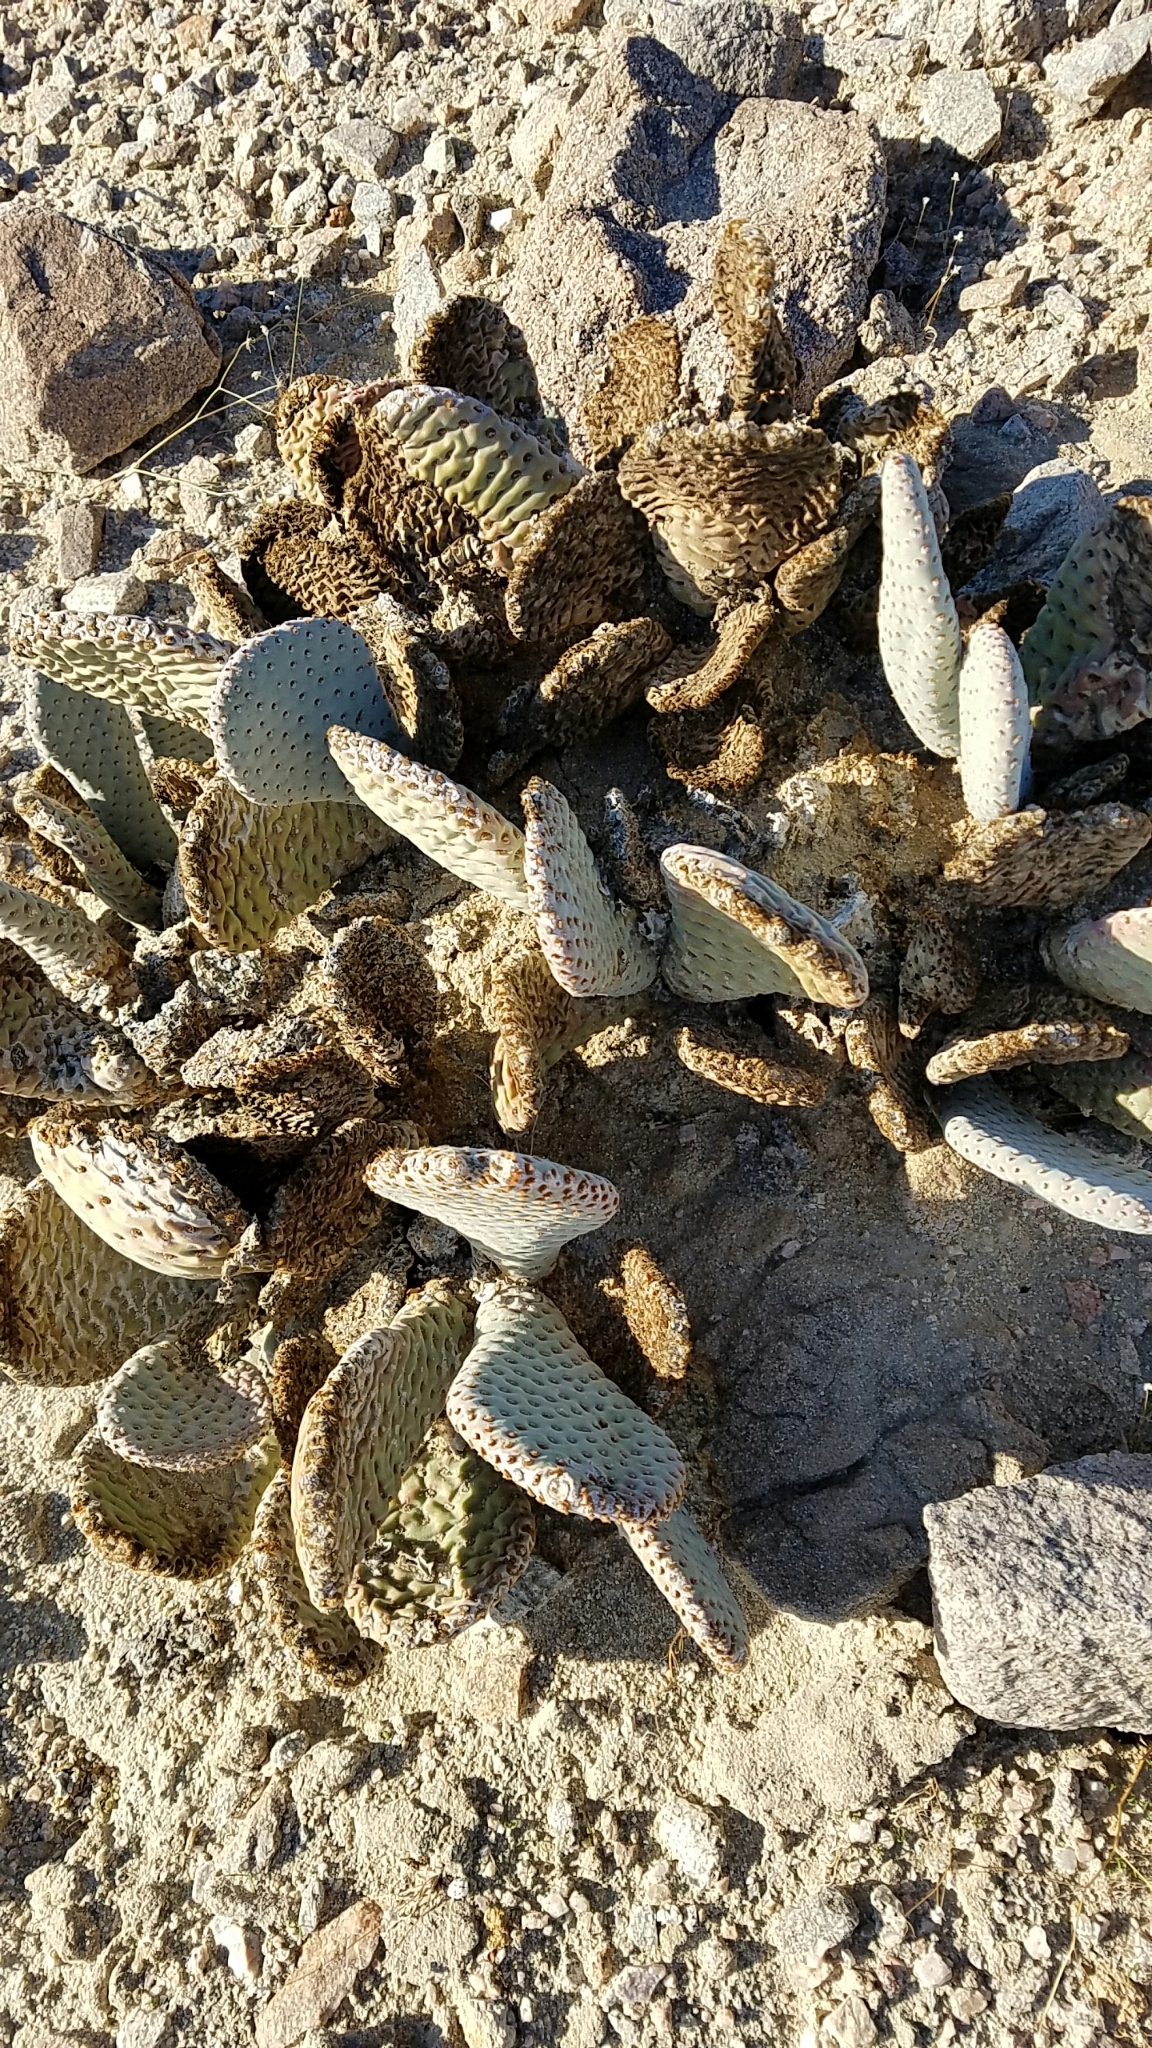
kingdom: Plantae
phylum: Tracheophyta
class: Magnoliopsida
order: Caryophyllales
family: Cactaceae
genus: Opuntia
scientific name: Opuntia basilaris
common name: Beavertail prickly-pear
